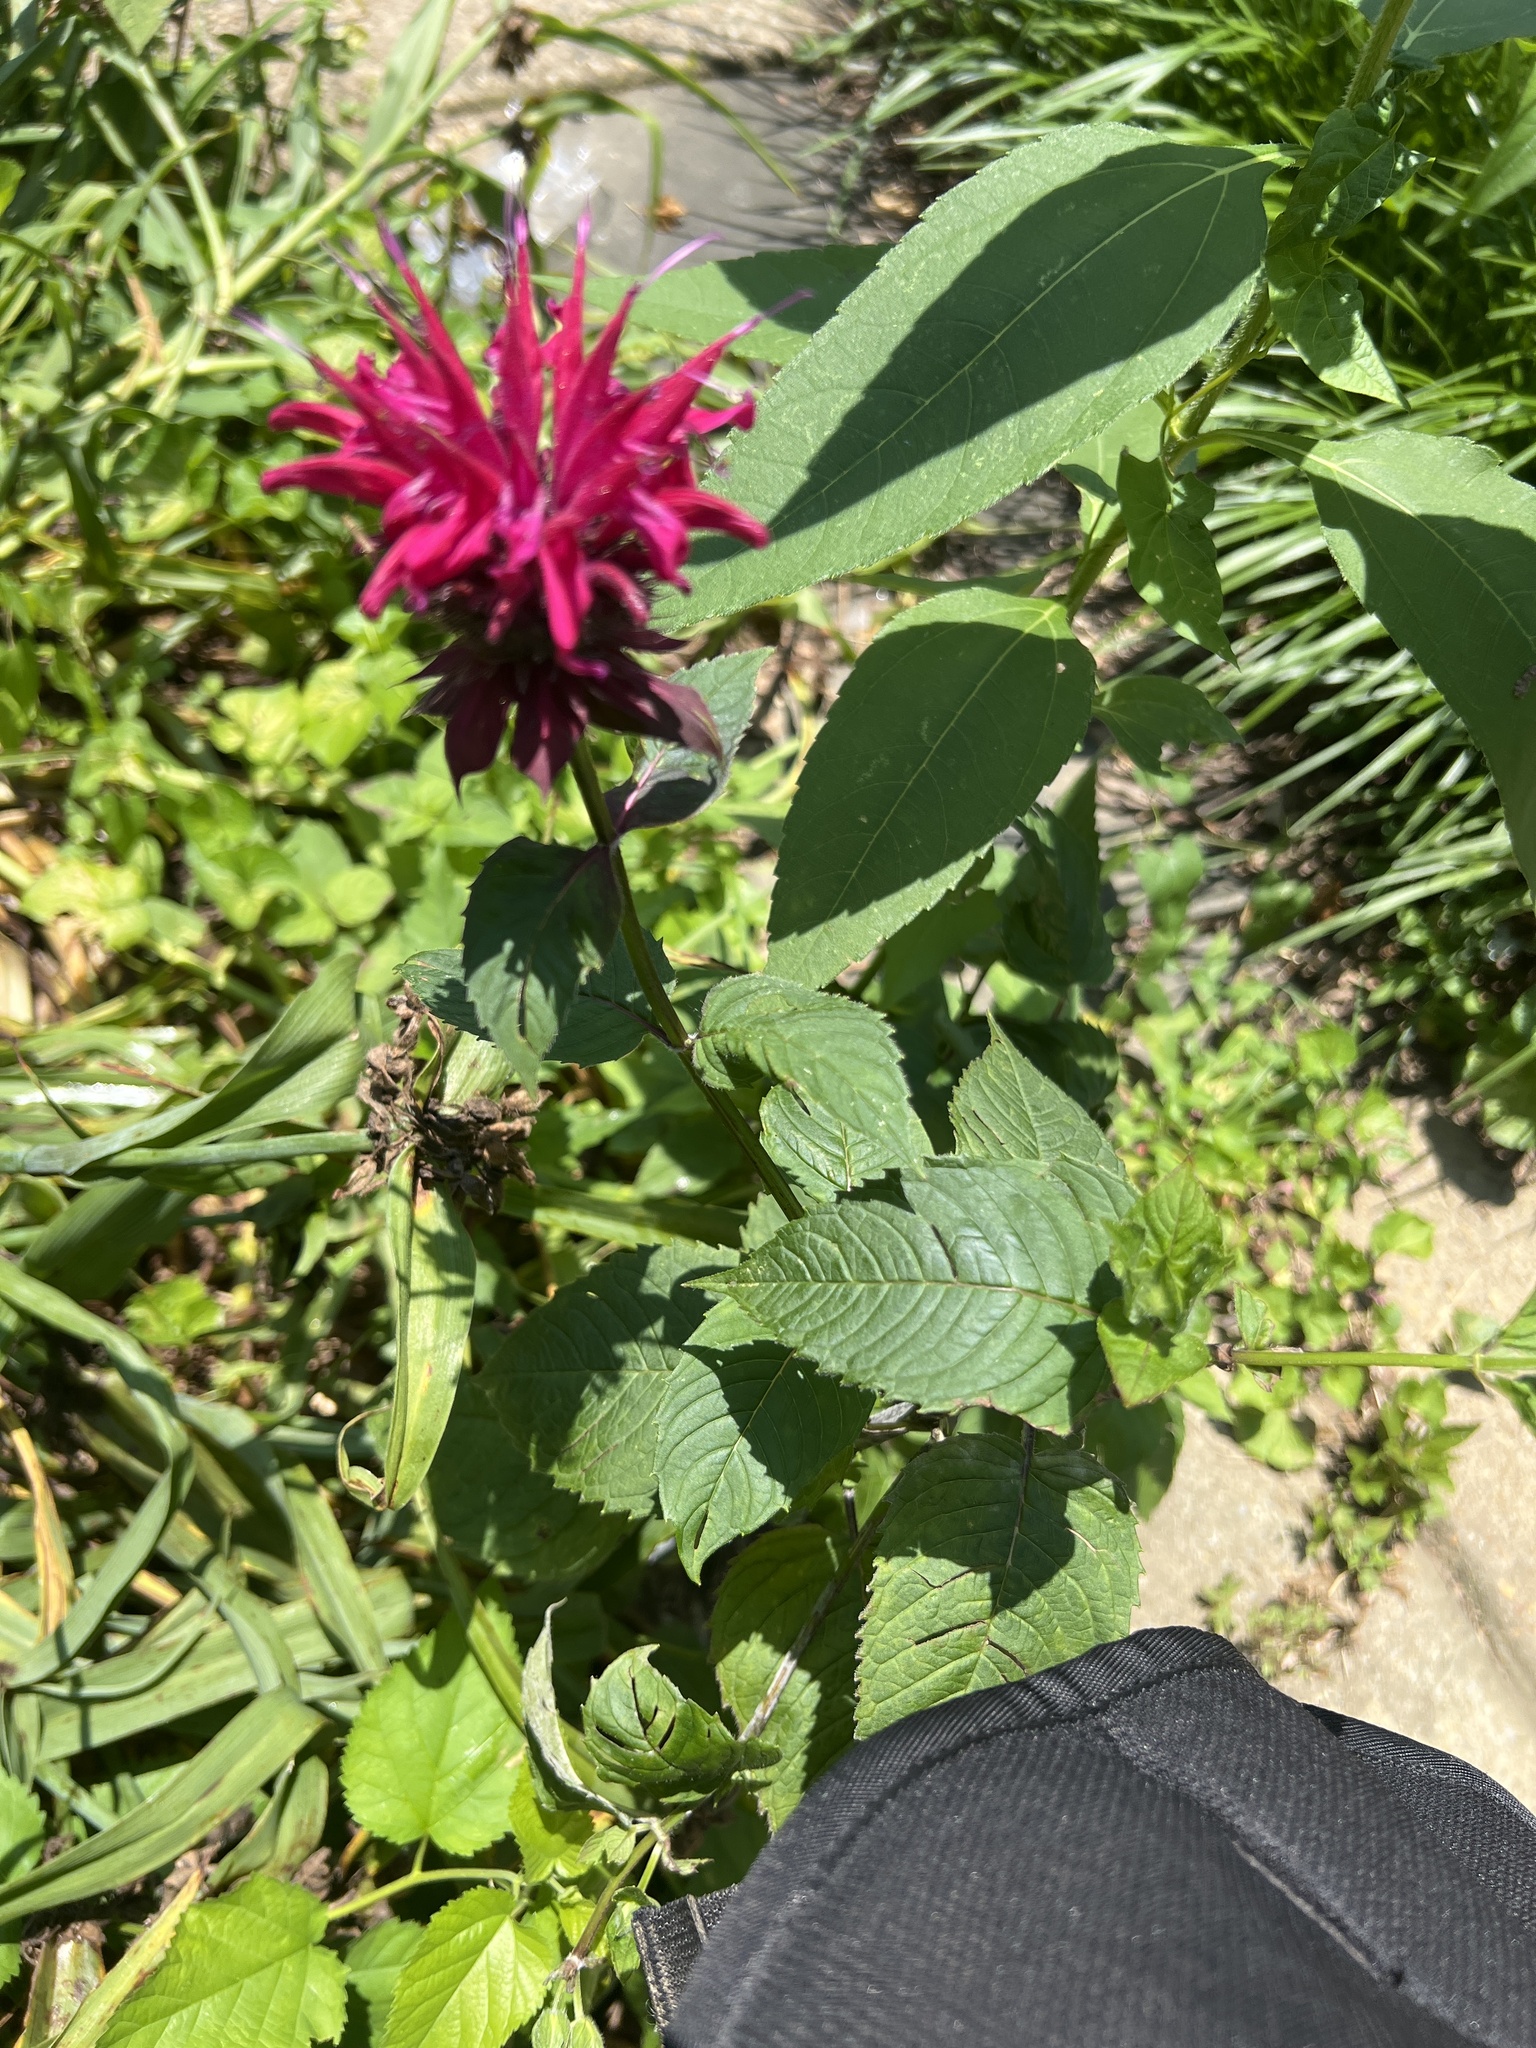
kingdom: Plantae
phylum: Tracheophyta
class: Magnoliopsida
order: Lamiales
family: Lamiaceae
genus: Monarda
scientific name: Monarda didyma
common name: Beebalm
